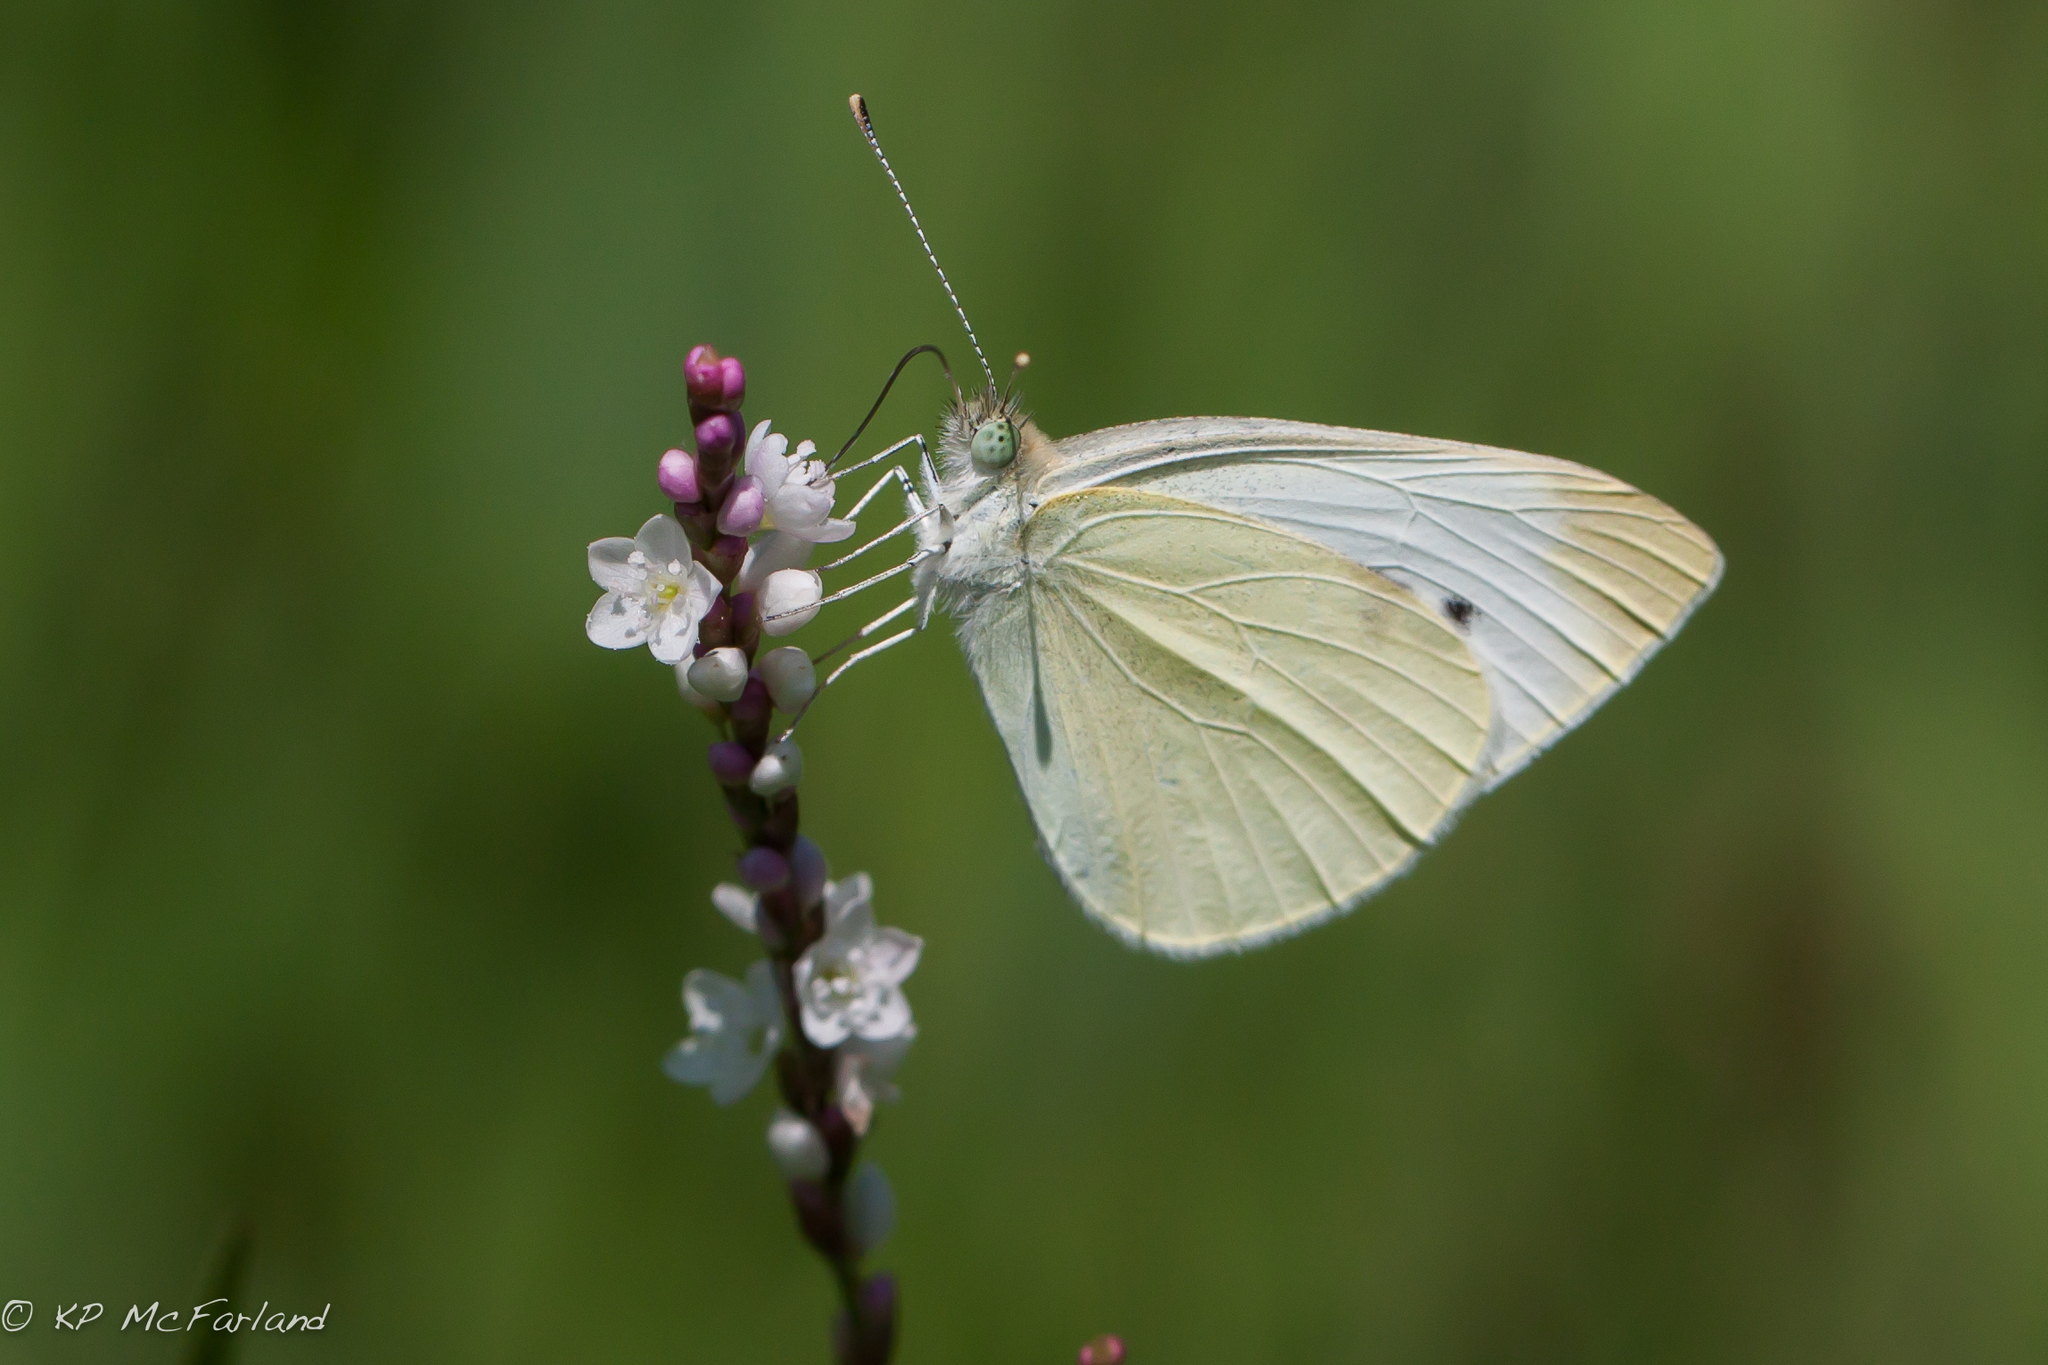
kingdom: Animalia
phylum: Arthropoda
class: Insecta
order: Lepidoptera
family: Pieridae
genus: Pieris
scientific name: Pieris rapae
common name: Small white
